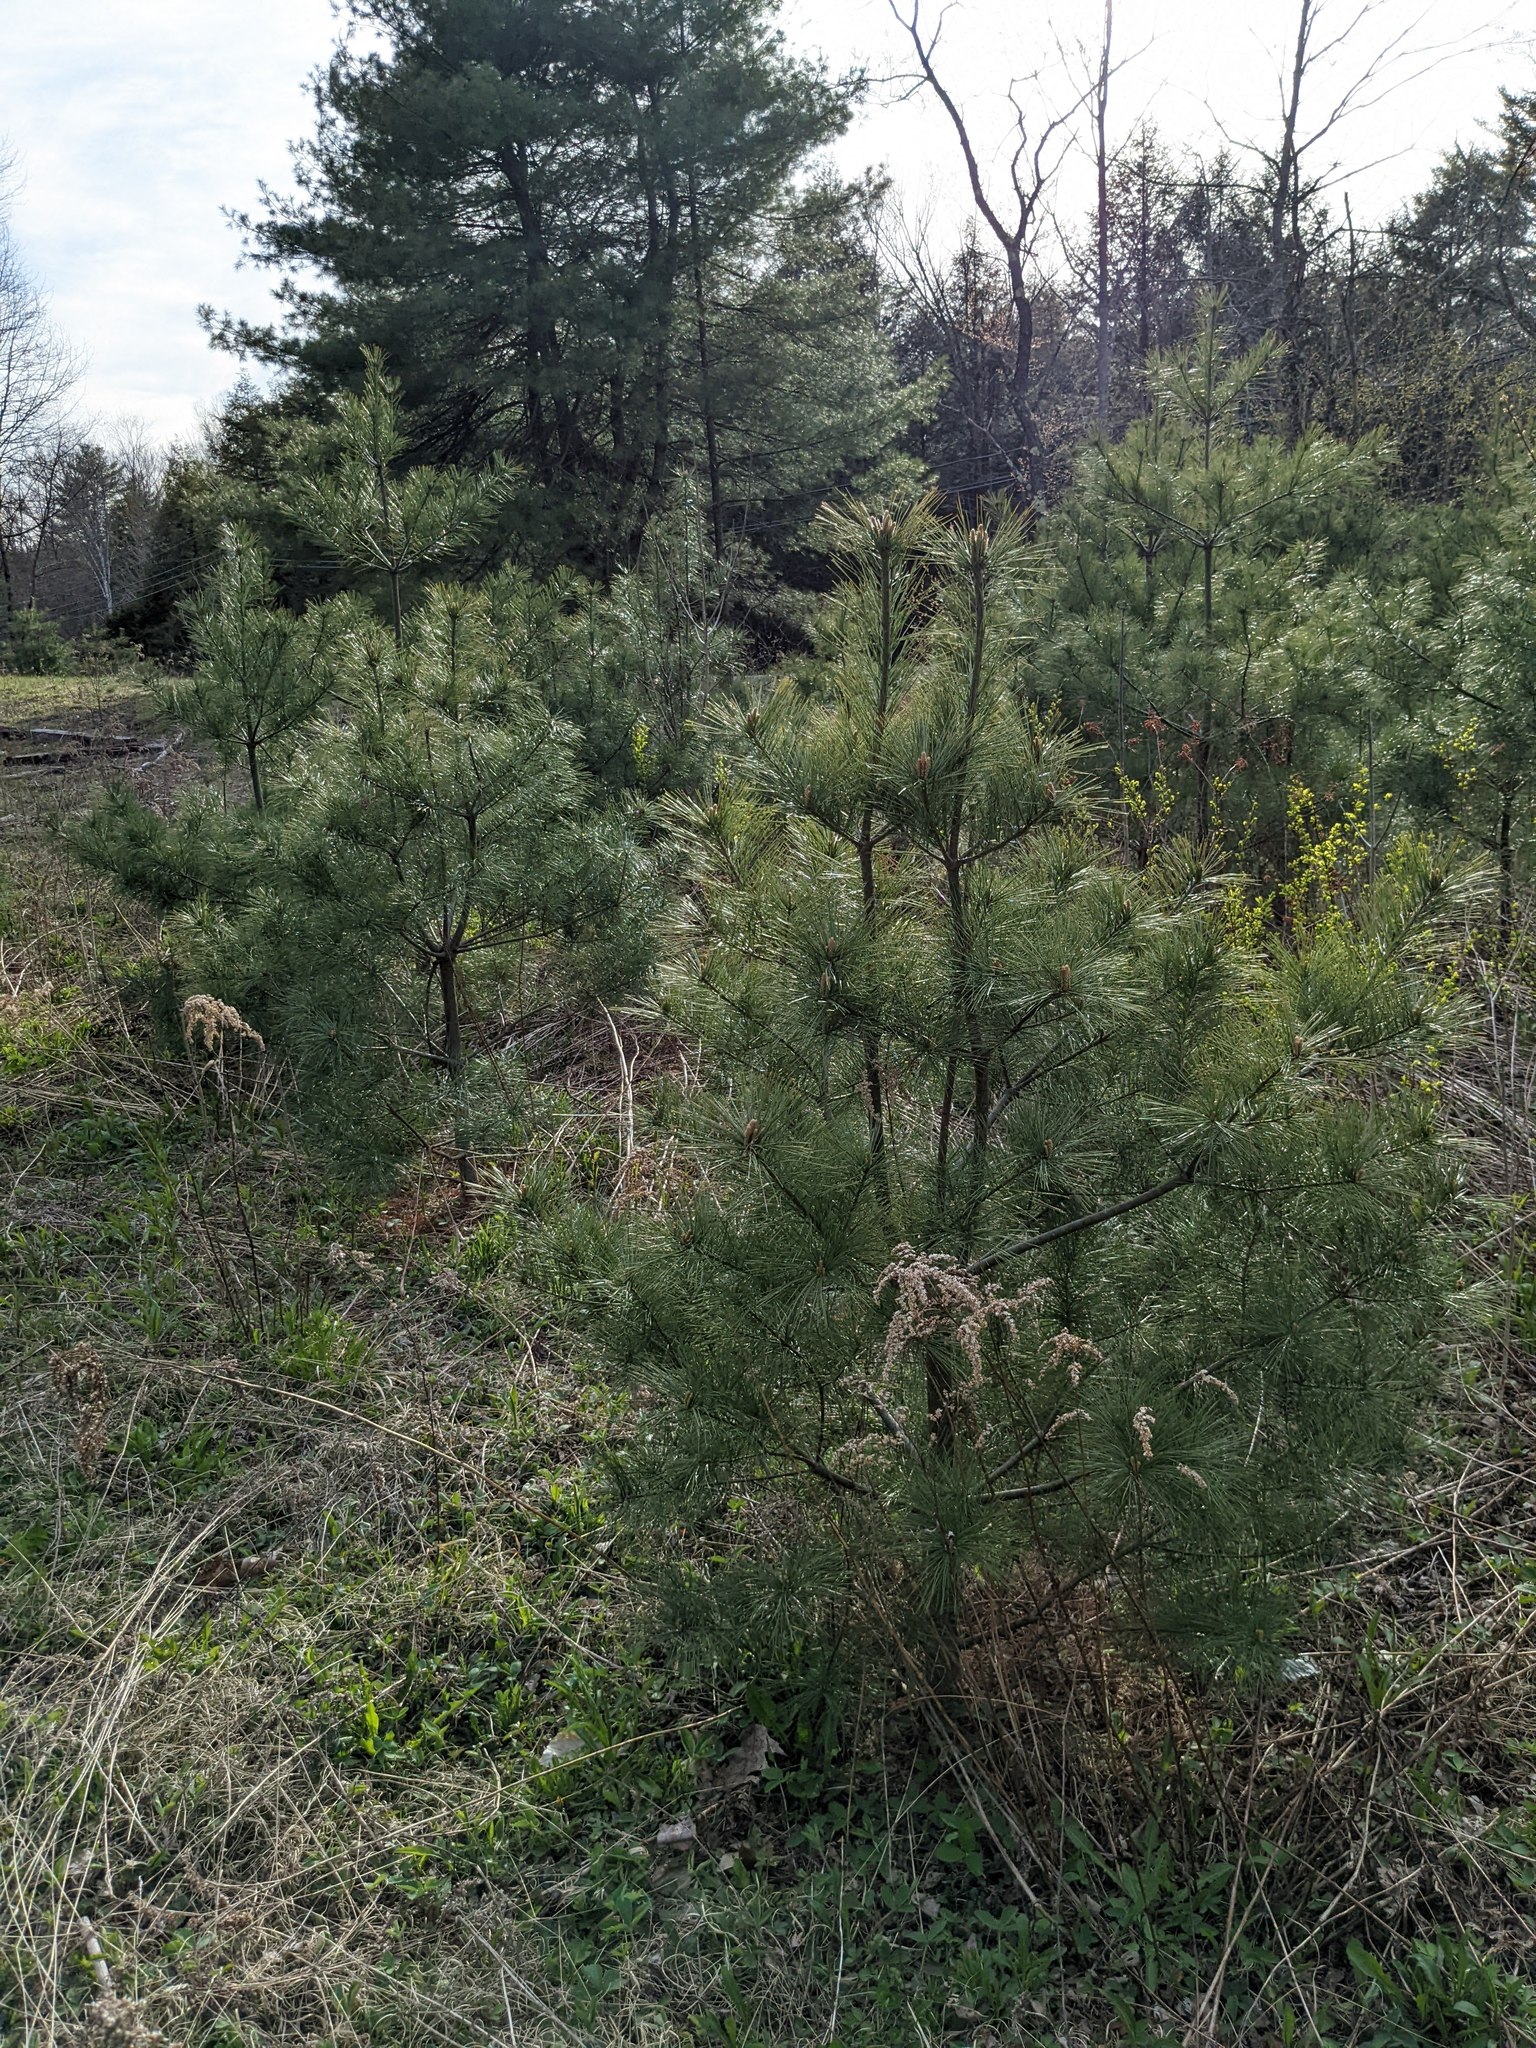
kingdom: Plantae
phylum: Tracheophyta
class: Pinopsida
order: Pinales
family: Pinaceae
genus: Pinus
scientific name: Pinus strobus
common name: Weymouth pine
